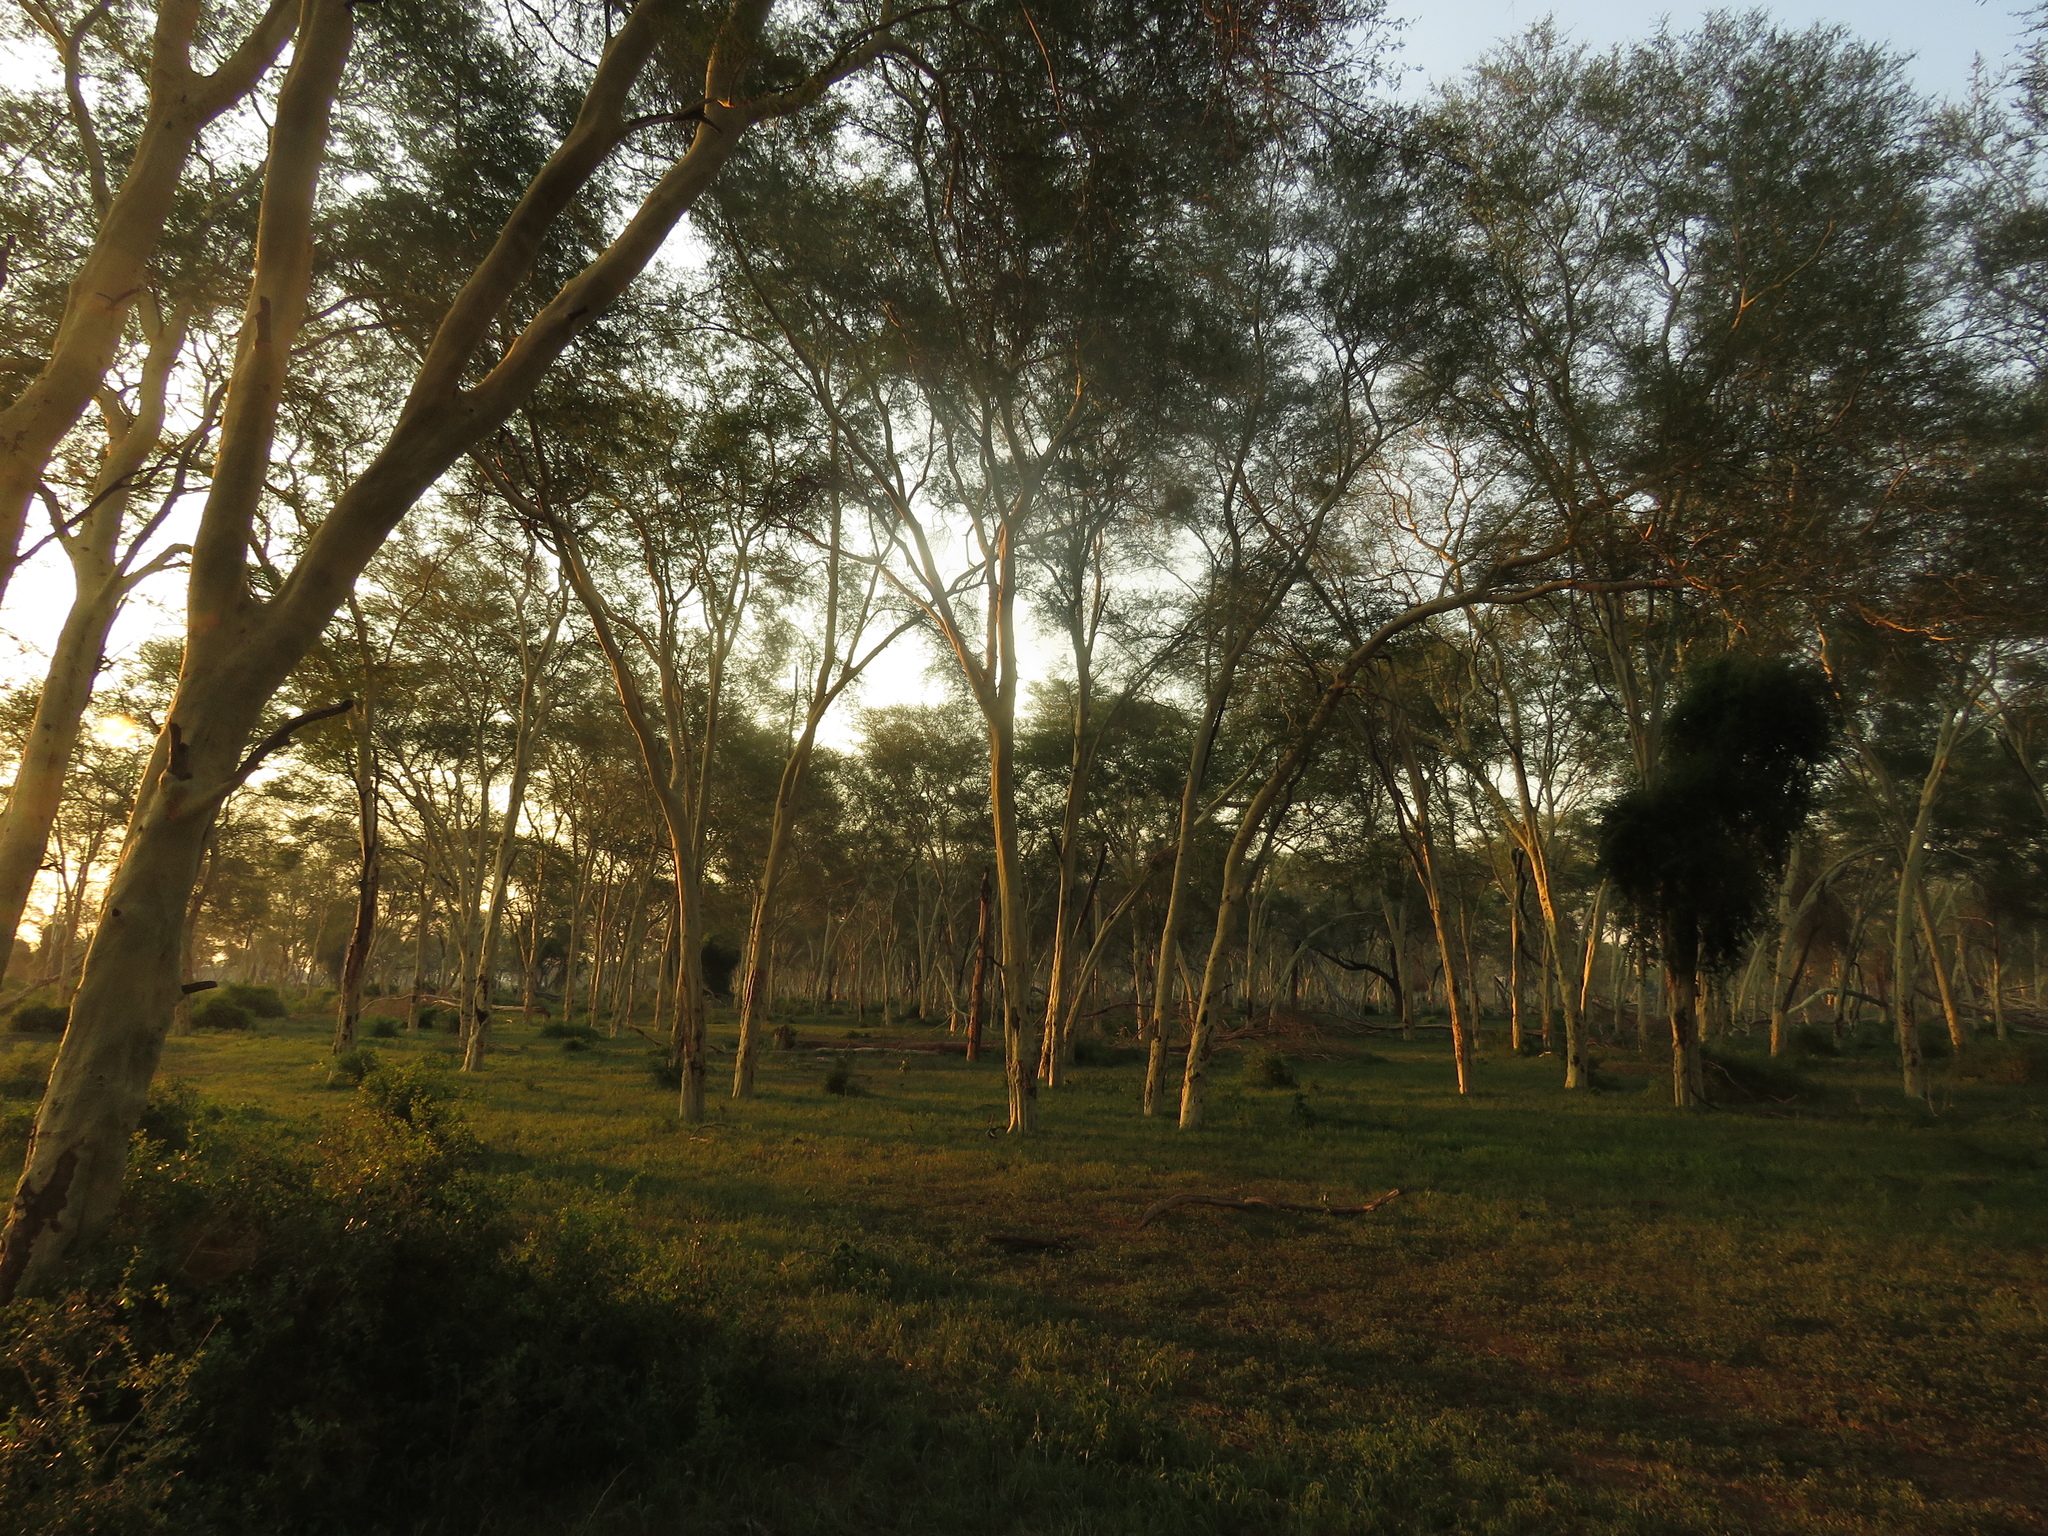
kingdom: Plantae
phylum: Tracheophyta
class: Magnoliopsida
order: Fabales
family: Fabaceae
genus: Vachellia
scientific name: Vachellia xanthophloea
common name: Fever tree
